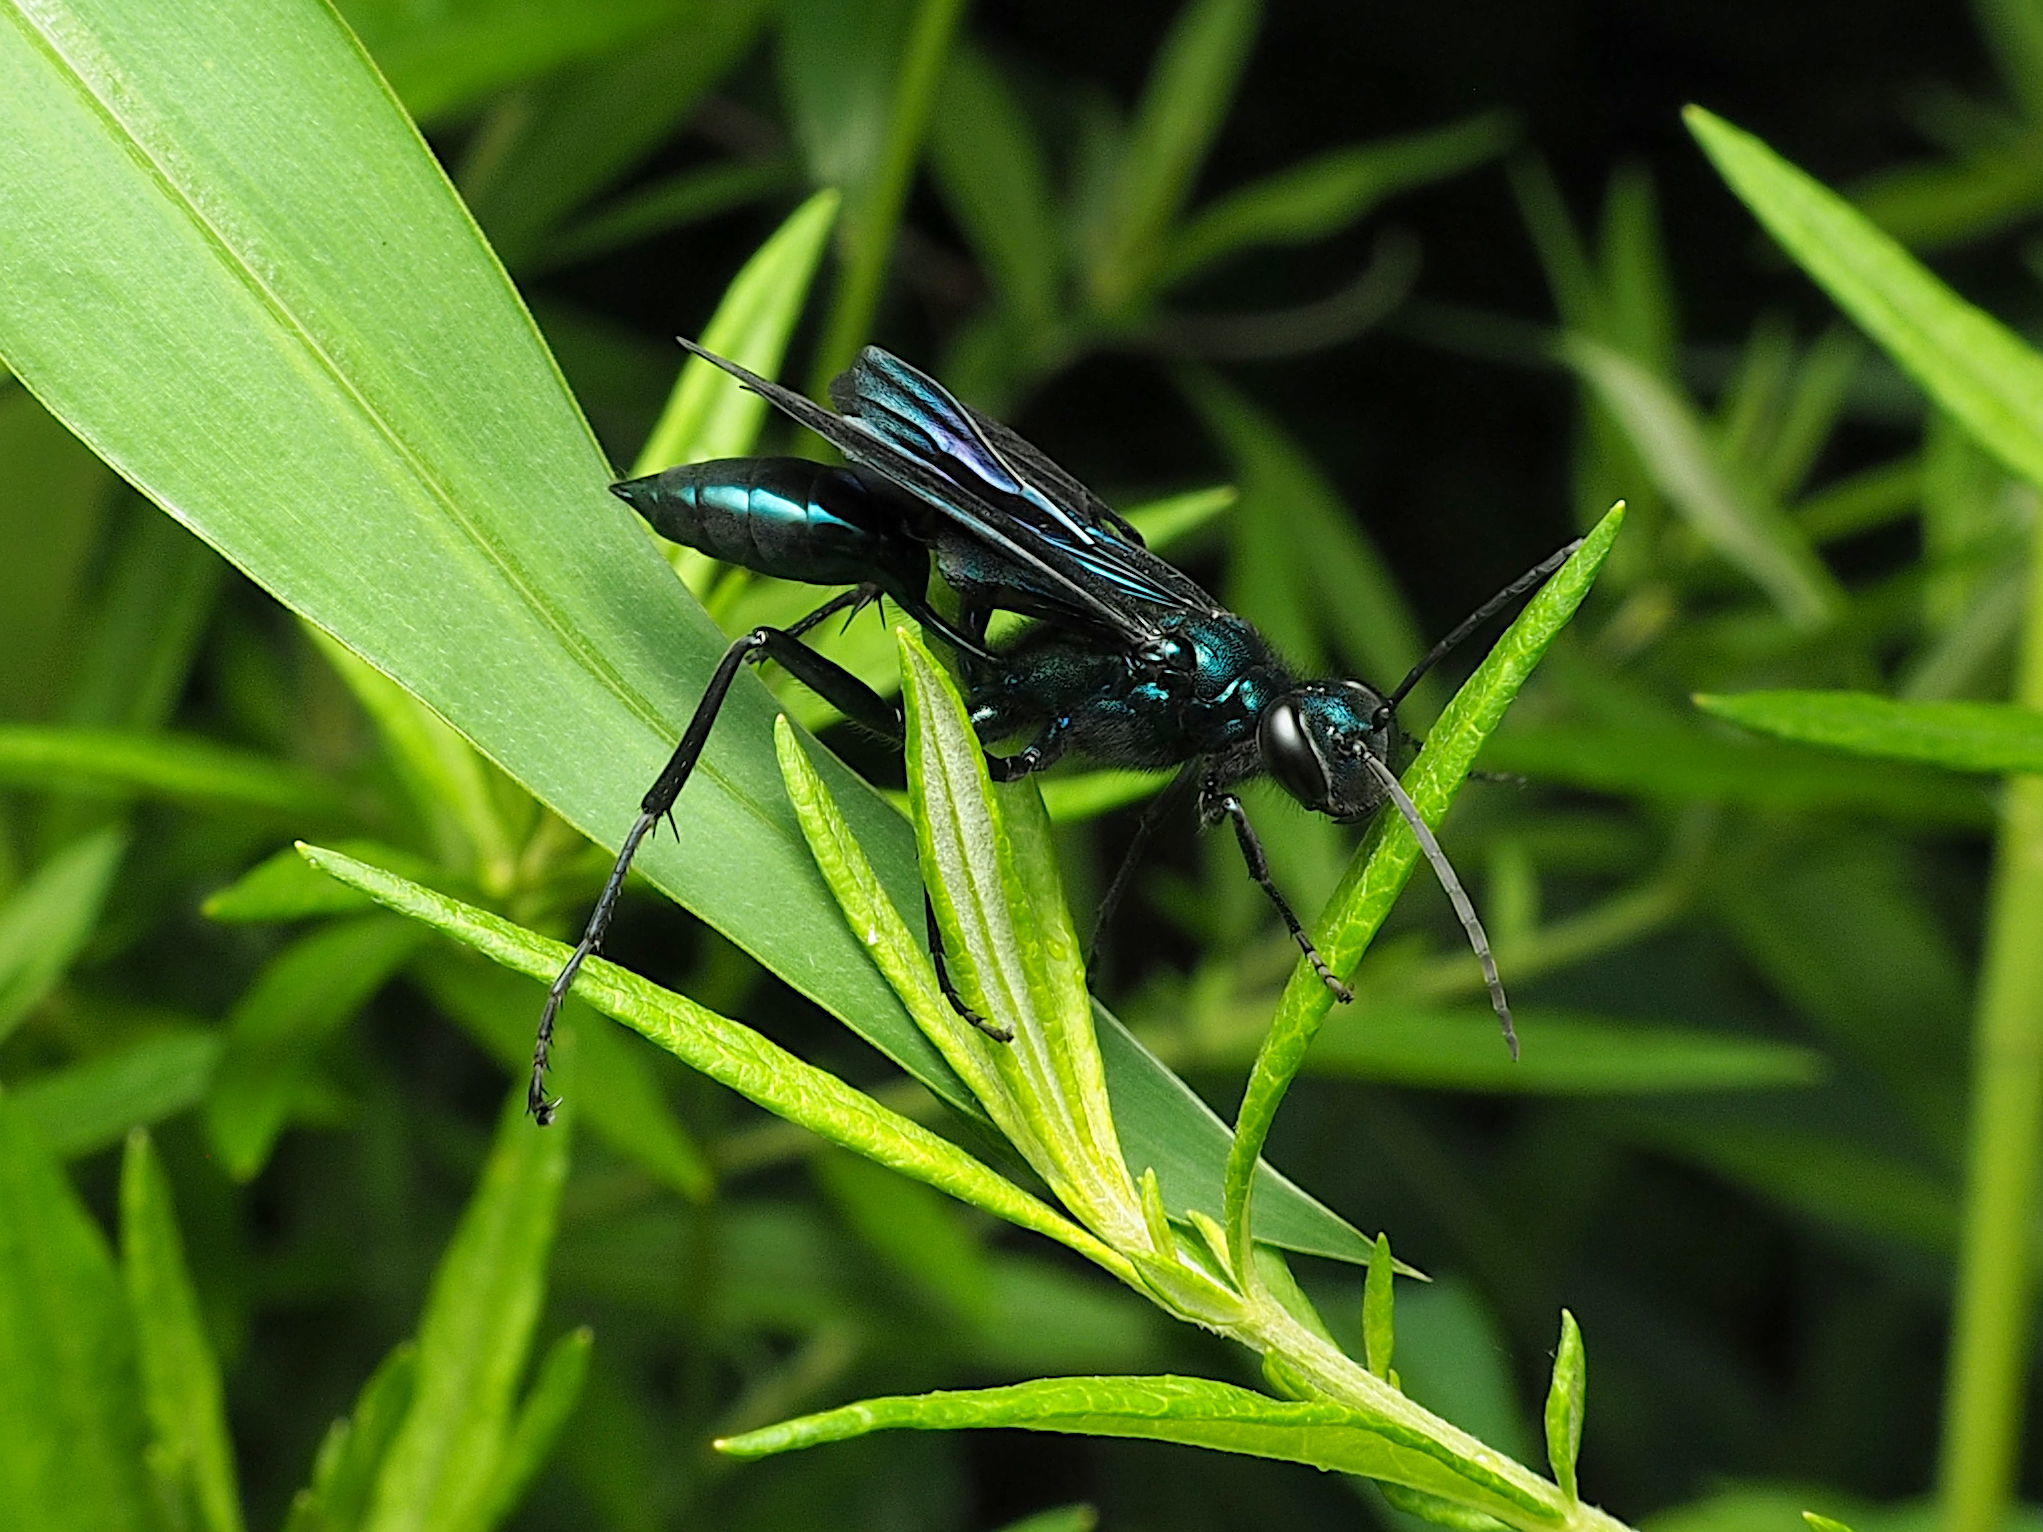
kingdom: Animalia
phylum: Arthropoda
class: Insecta
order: Hymenoptera
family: Sphecidae
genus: Chalybion
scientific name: Chalybion californicum
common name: Mud dauber
